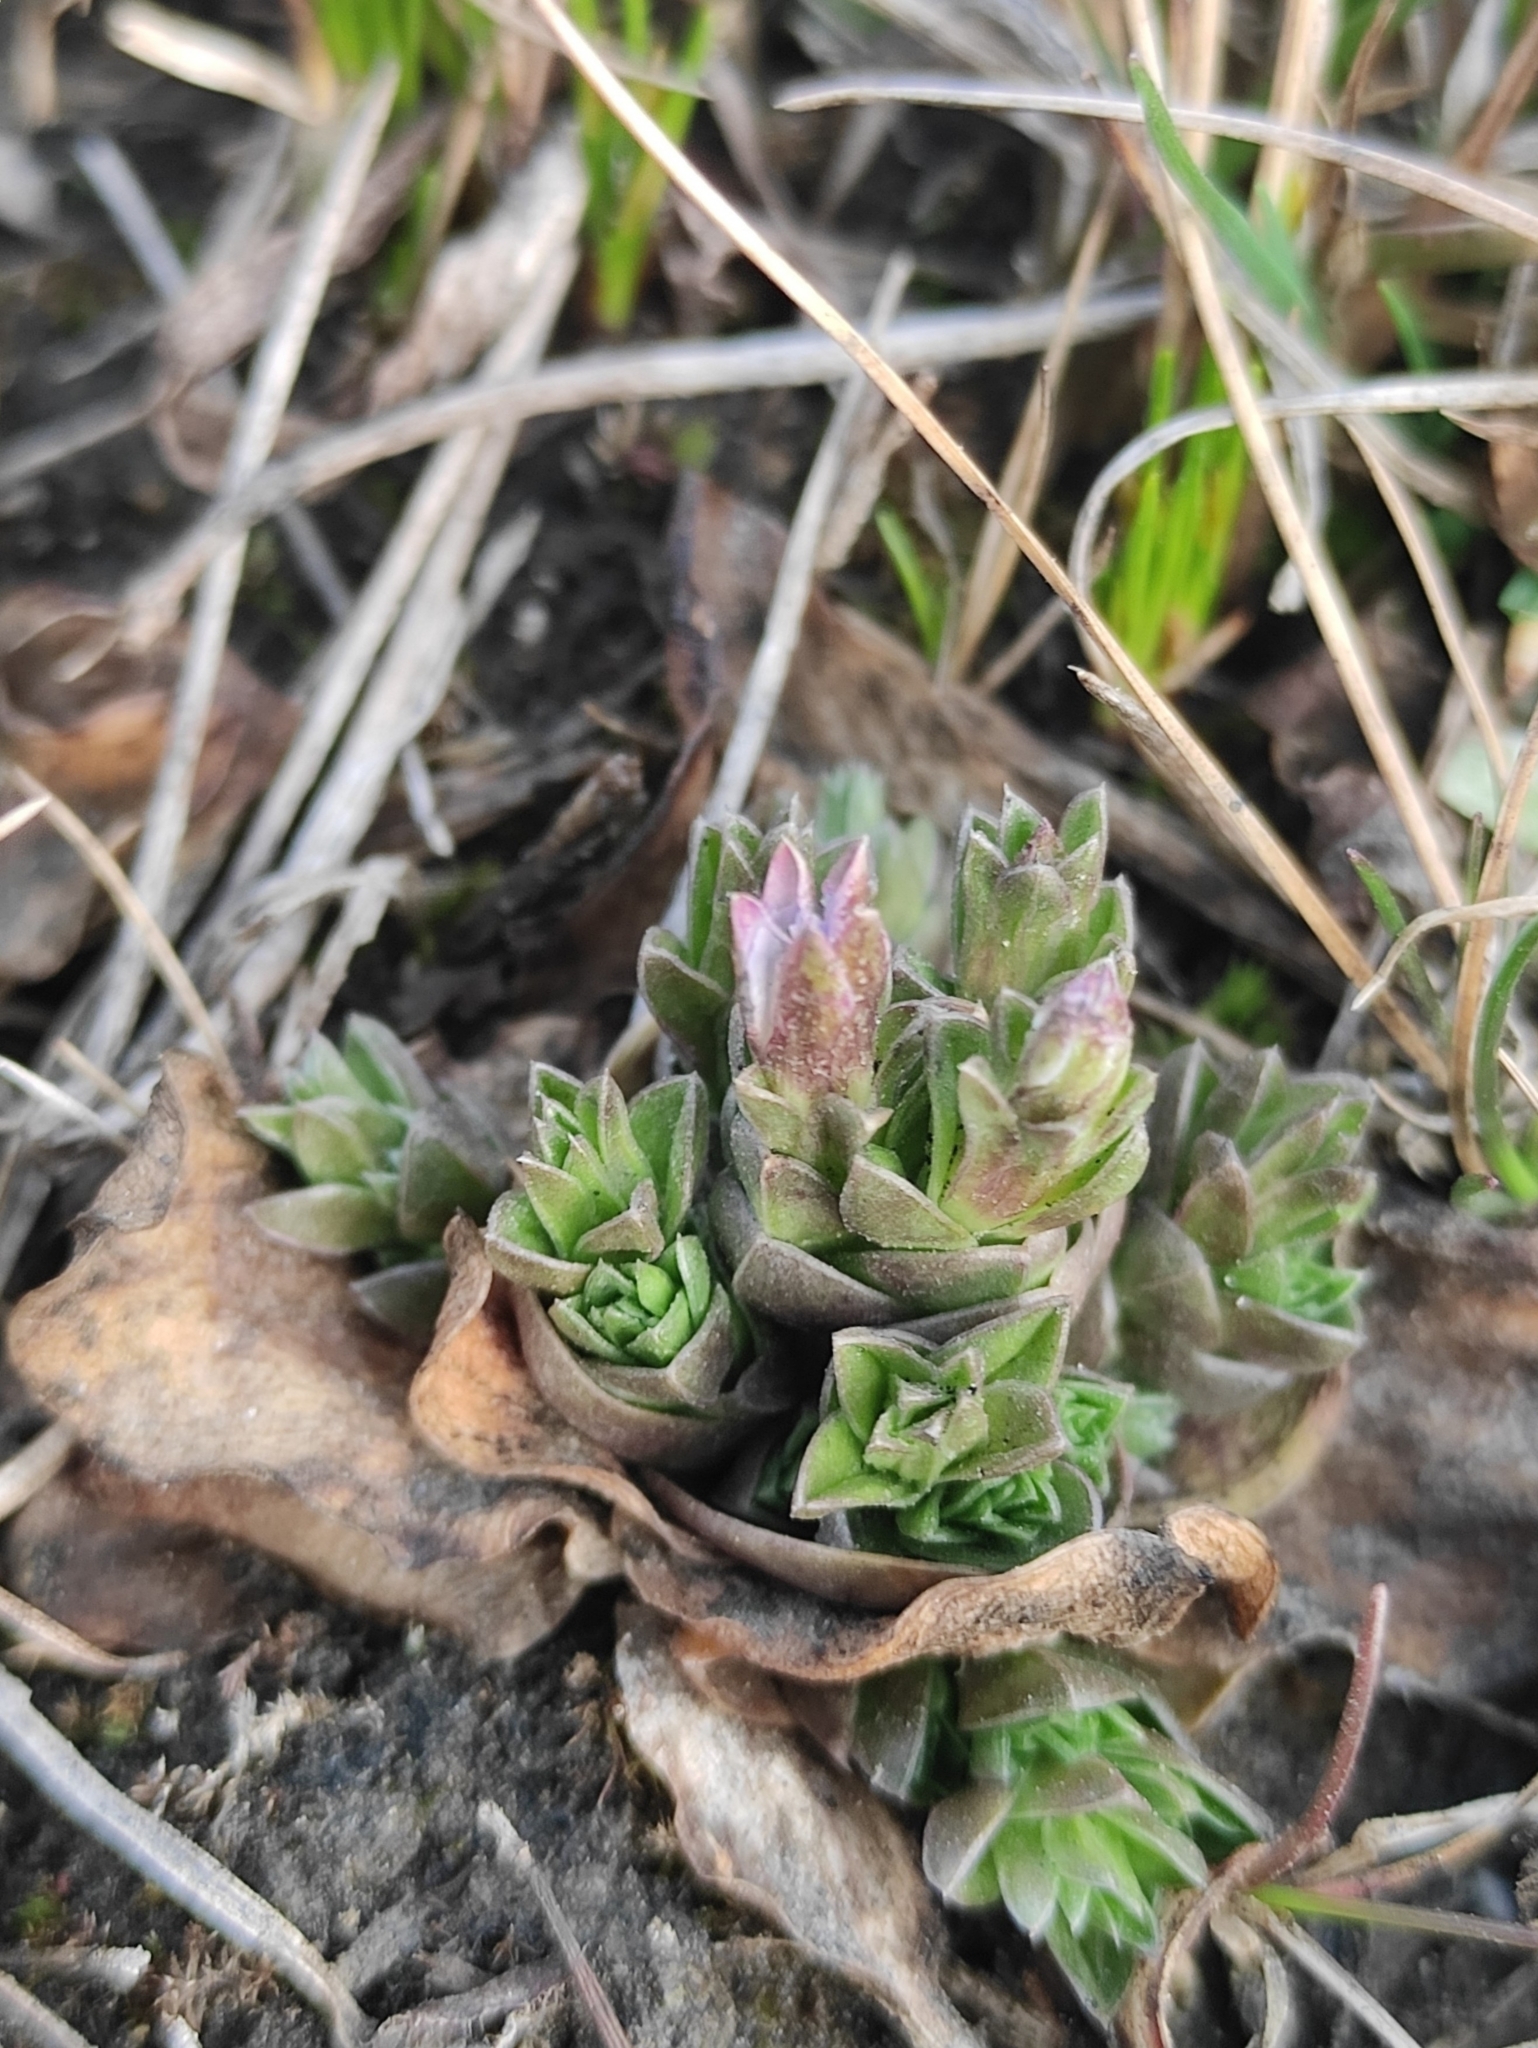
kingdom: Plantae
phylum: Tracheophyta
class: Magnoliopsida
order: Saxifragales
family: Crassulaceae
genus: Orostachys
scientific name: Orostachys malacophylla
